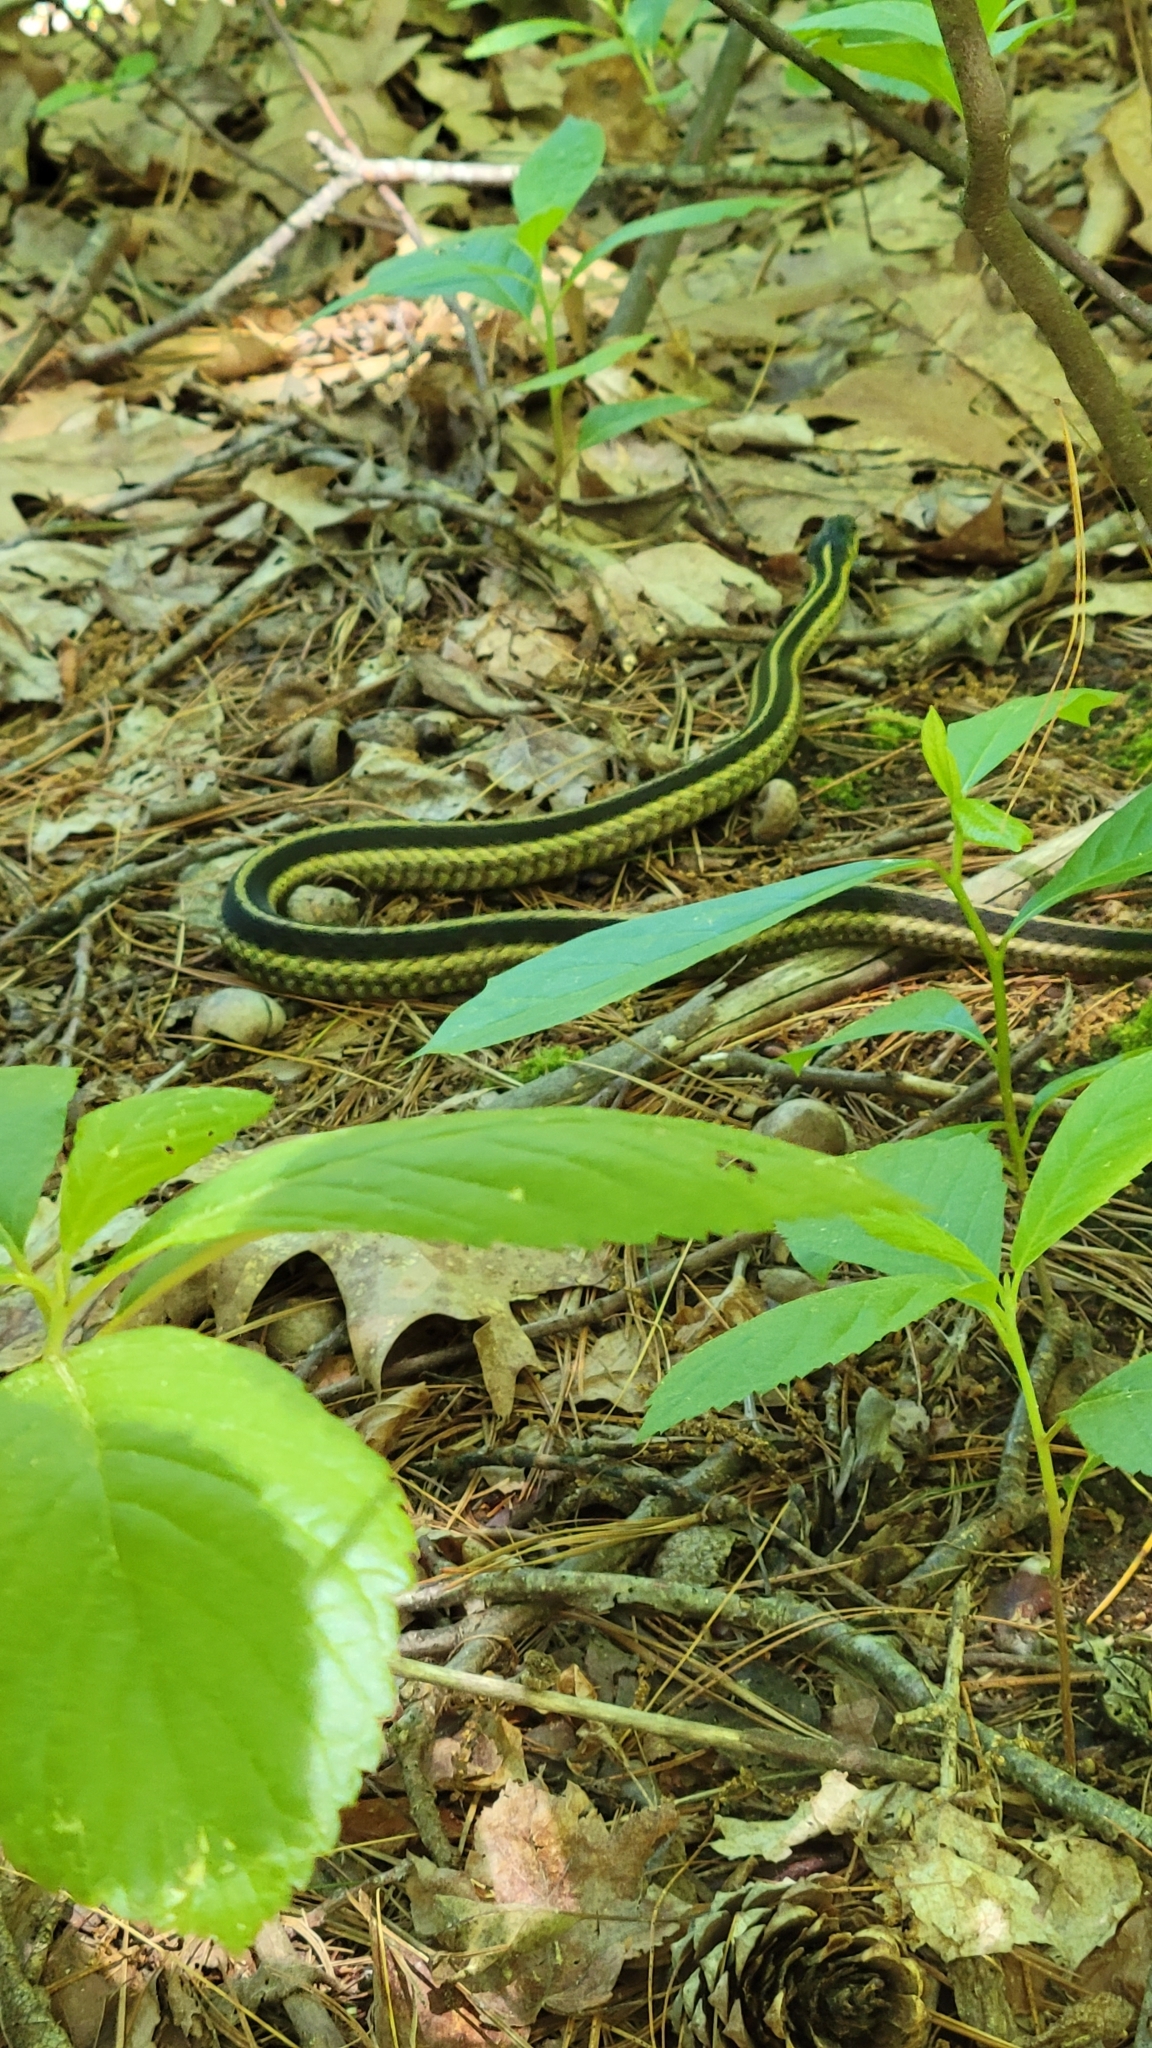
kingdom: Animalia
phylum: Chordata
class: Squamata
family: Colubridae
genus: Thamnophis
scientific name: Thamnophis sirtalis
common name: Common garter snake
